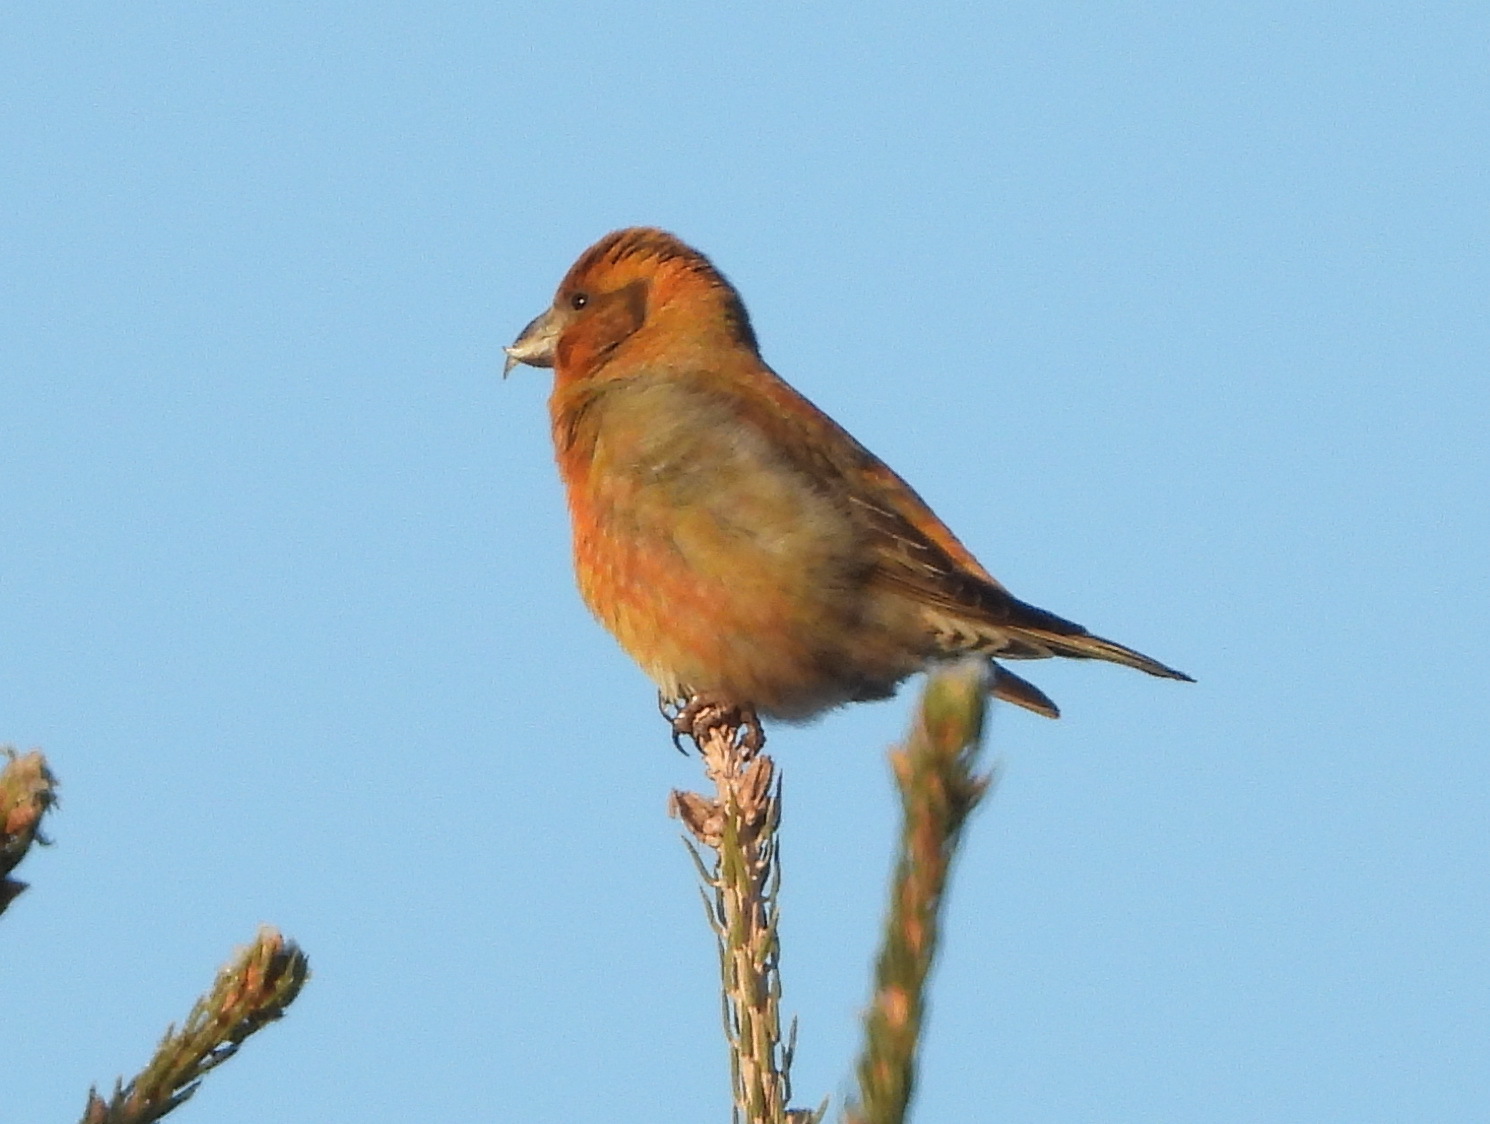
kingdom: Animalia
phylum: Chordata
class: Aves
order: Passeriformes
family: Fringillidae
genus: Loxia
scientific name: Loxia curvirostra
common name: Red crossbill
